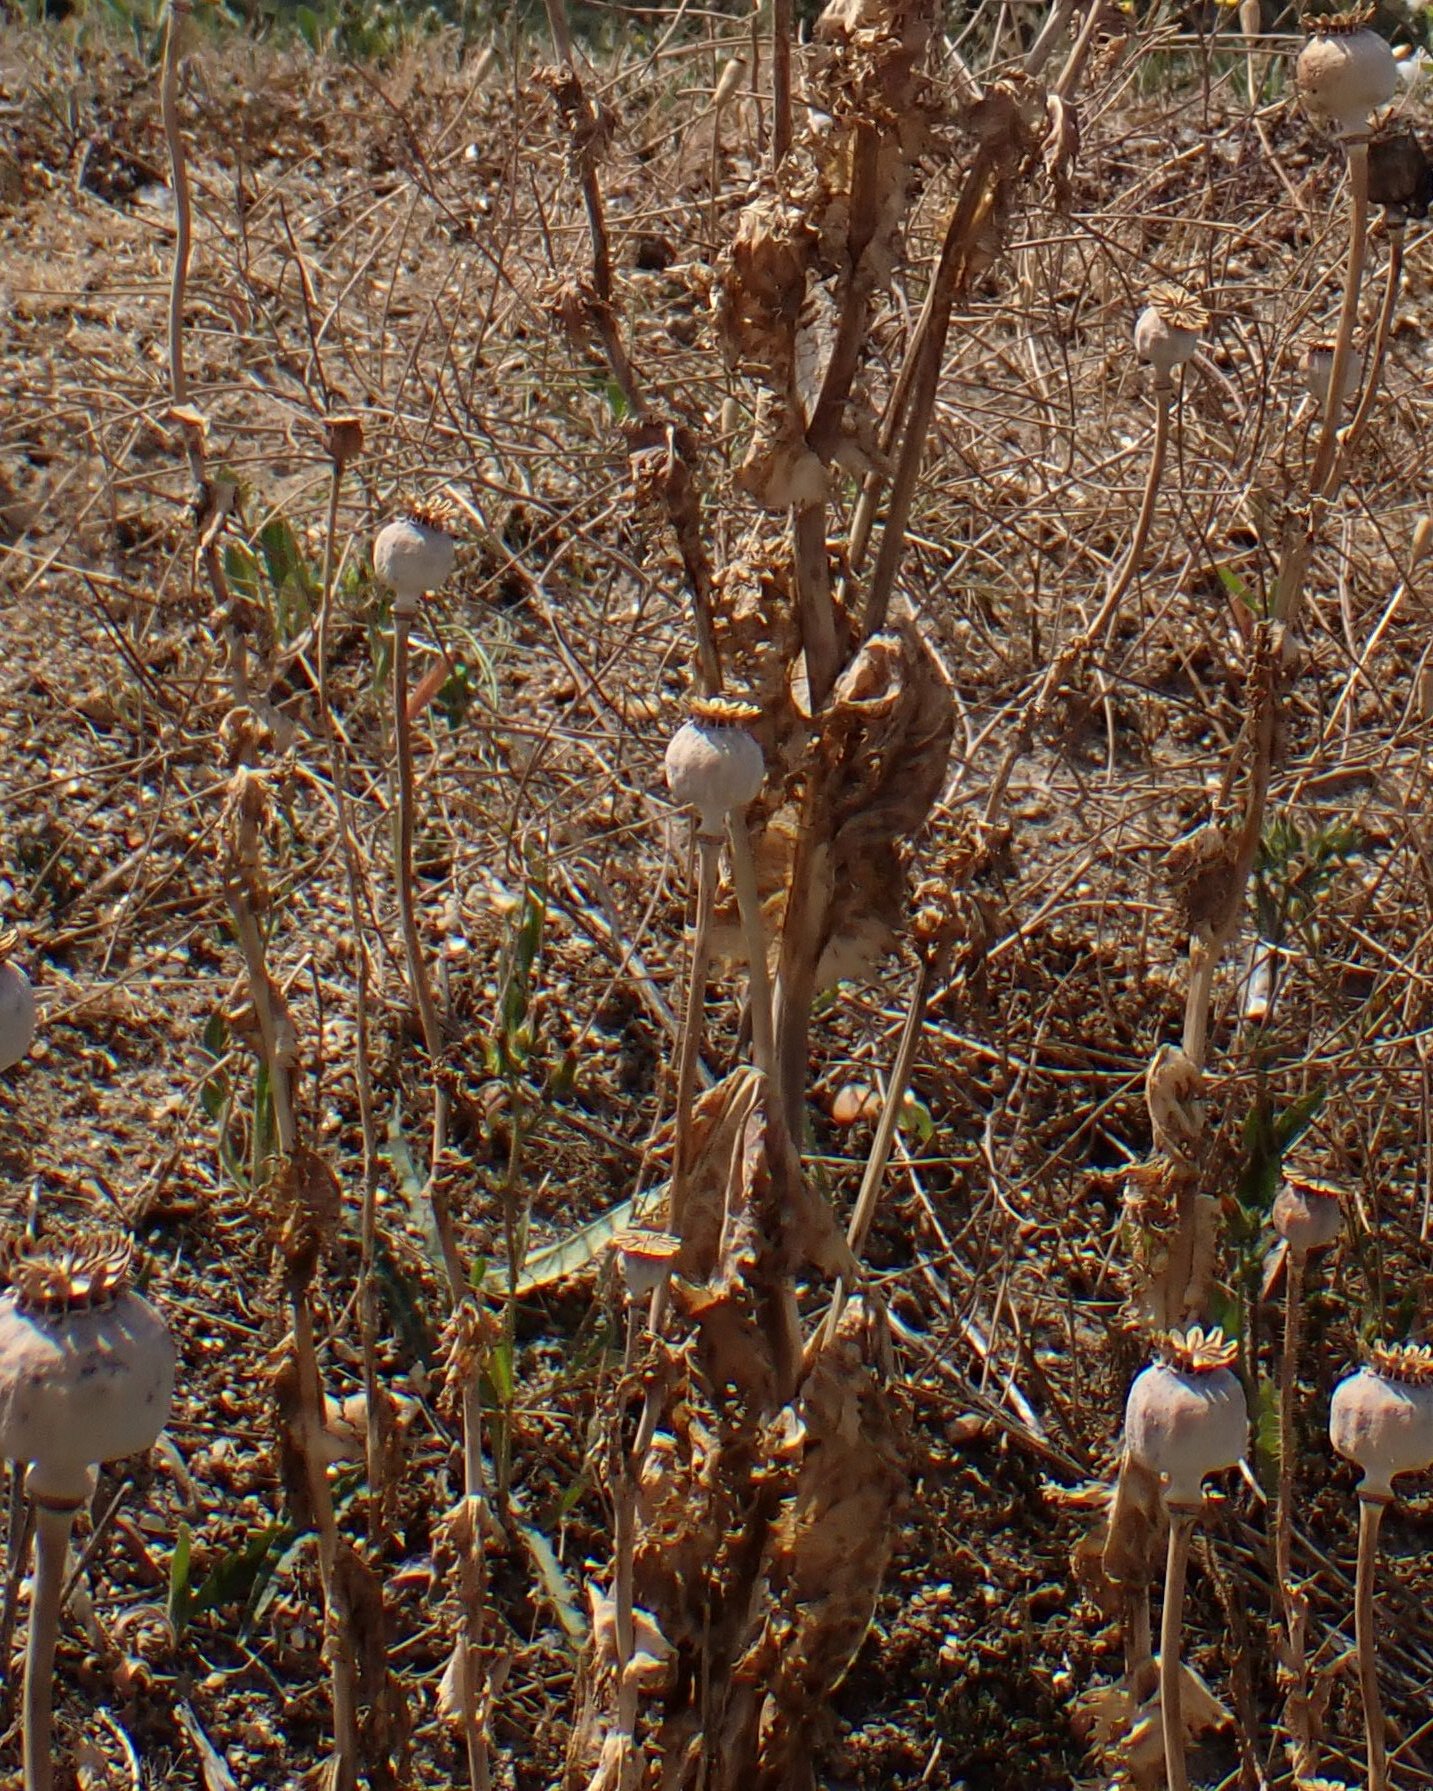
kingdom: Plantae
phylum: Tracheophyta
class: Magnoliopsida
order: Ranunculales
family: Papaveraceae
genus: Papaver
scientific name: Papaver somniferum
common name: Opium poppy
